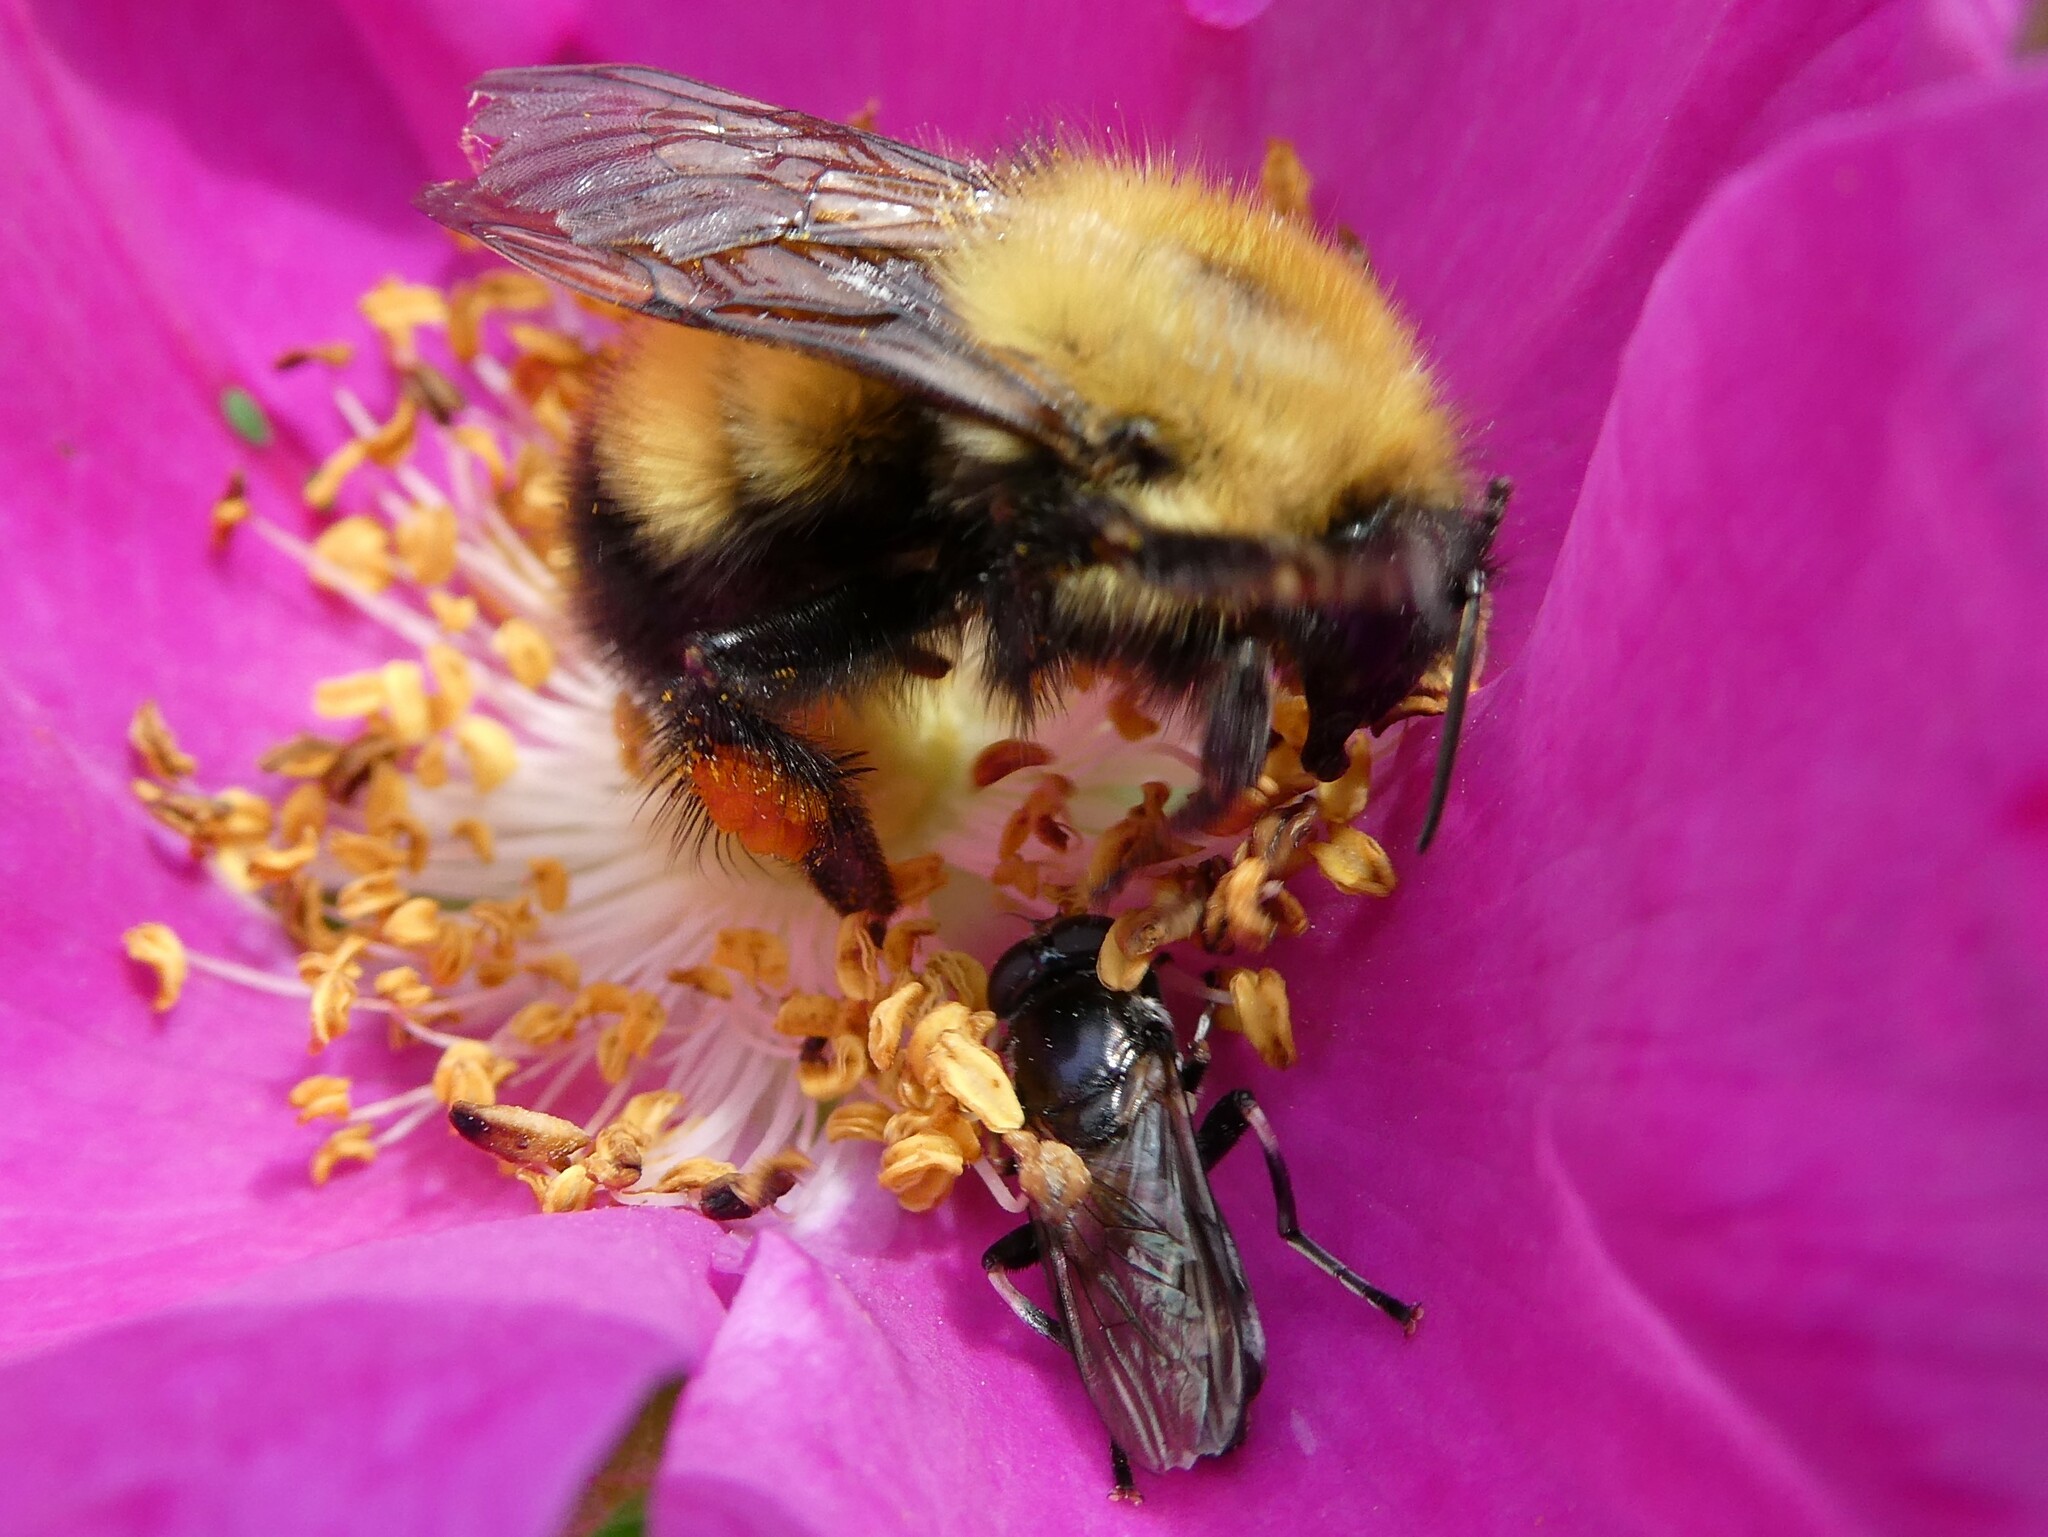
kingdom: Animalia
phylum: Arthropoda
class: Insecta
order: Hymenoptera
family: Apidae
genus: Bombus
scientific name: Bombus perplexus
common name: Confusing bumble bee
